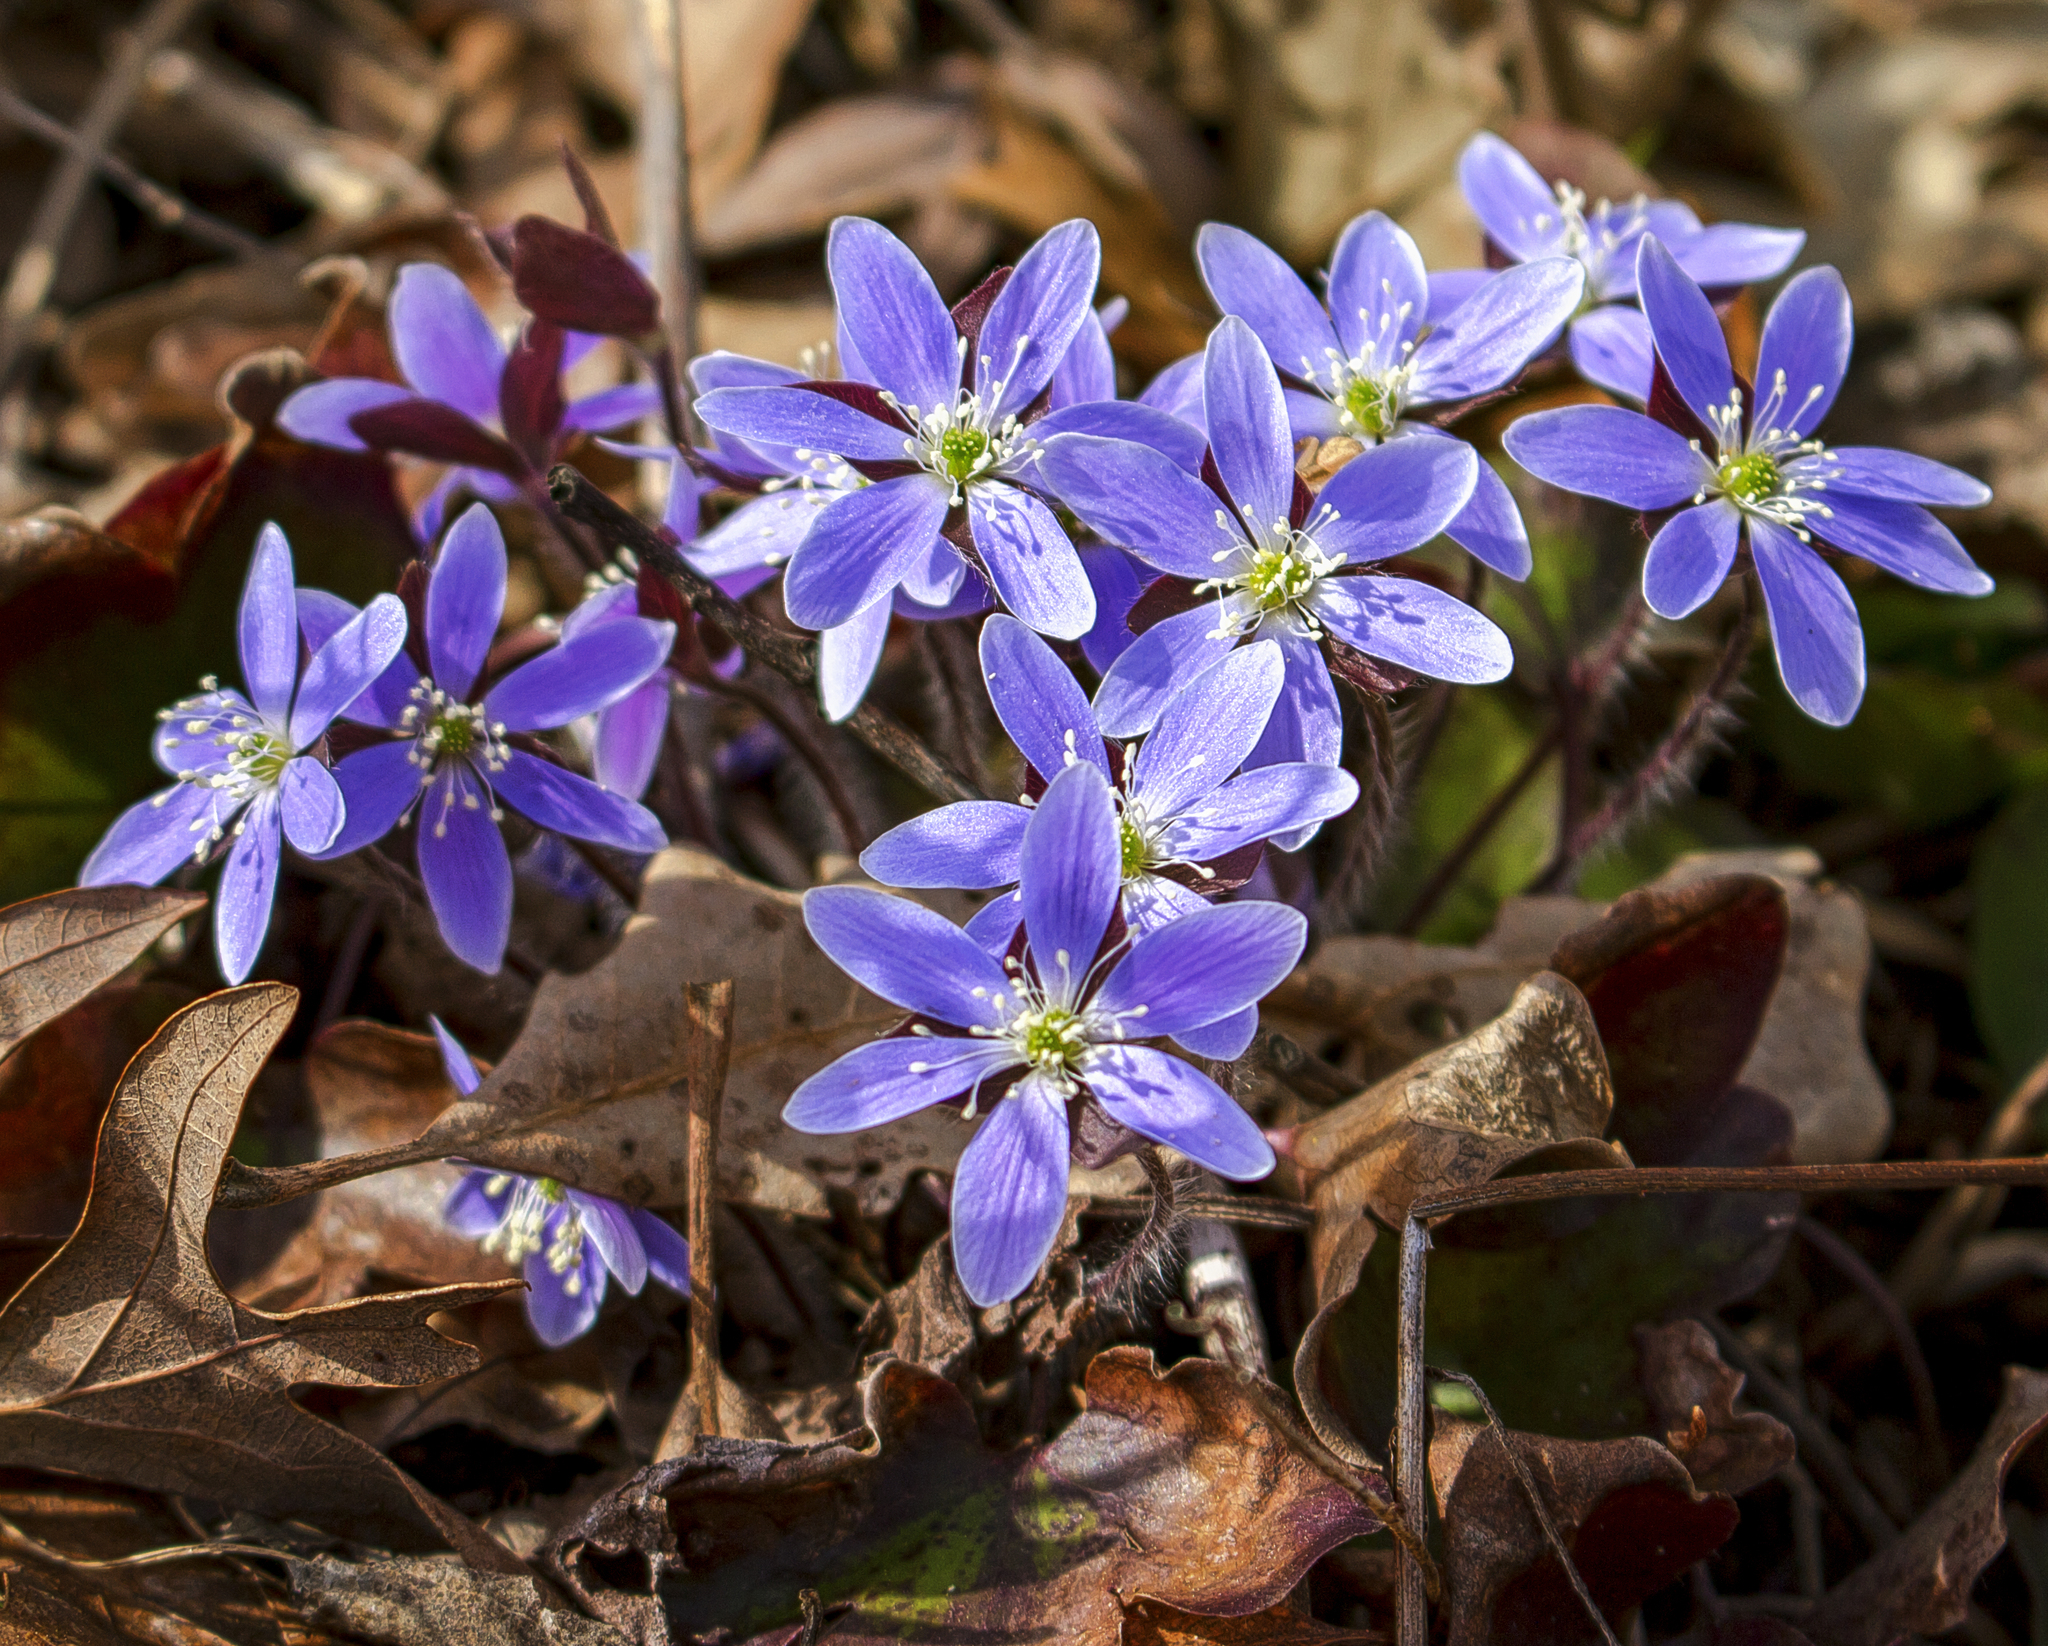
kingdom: Plantae
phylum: Tracheophyta
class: Magnoliopsida
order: Ranunculales
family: Ranunculaceae
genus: Hepatica
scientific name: Hepatica acutiloba
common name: Sharp-lobed hepatica
